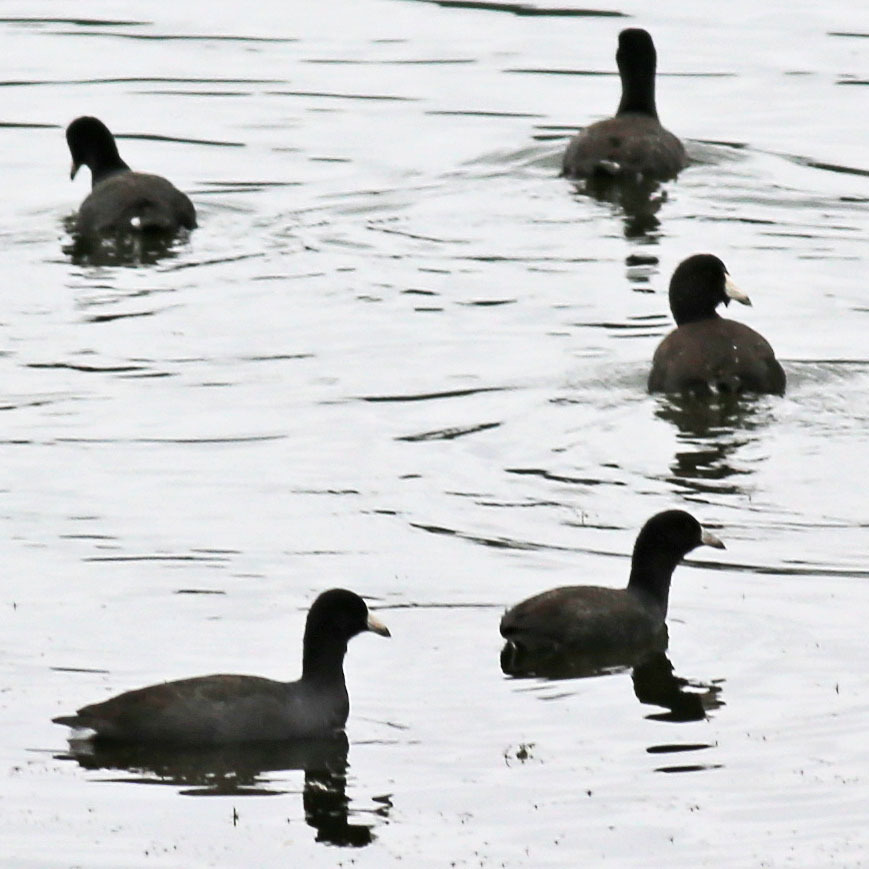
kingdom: Animalia
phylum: Chordata
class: Aves
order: Gruiformes
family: Rallidae
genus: Fulica
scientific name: Fulica americana
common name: American coot
